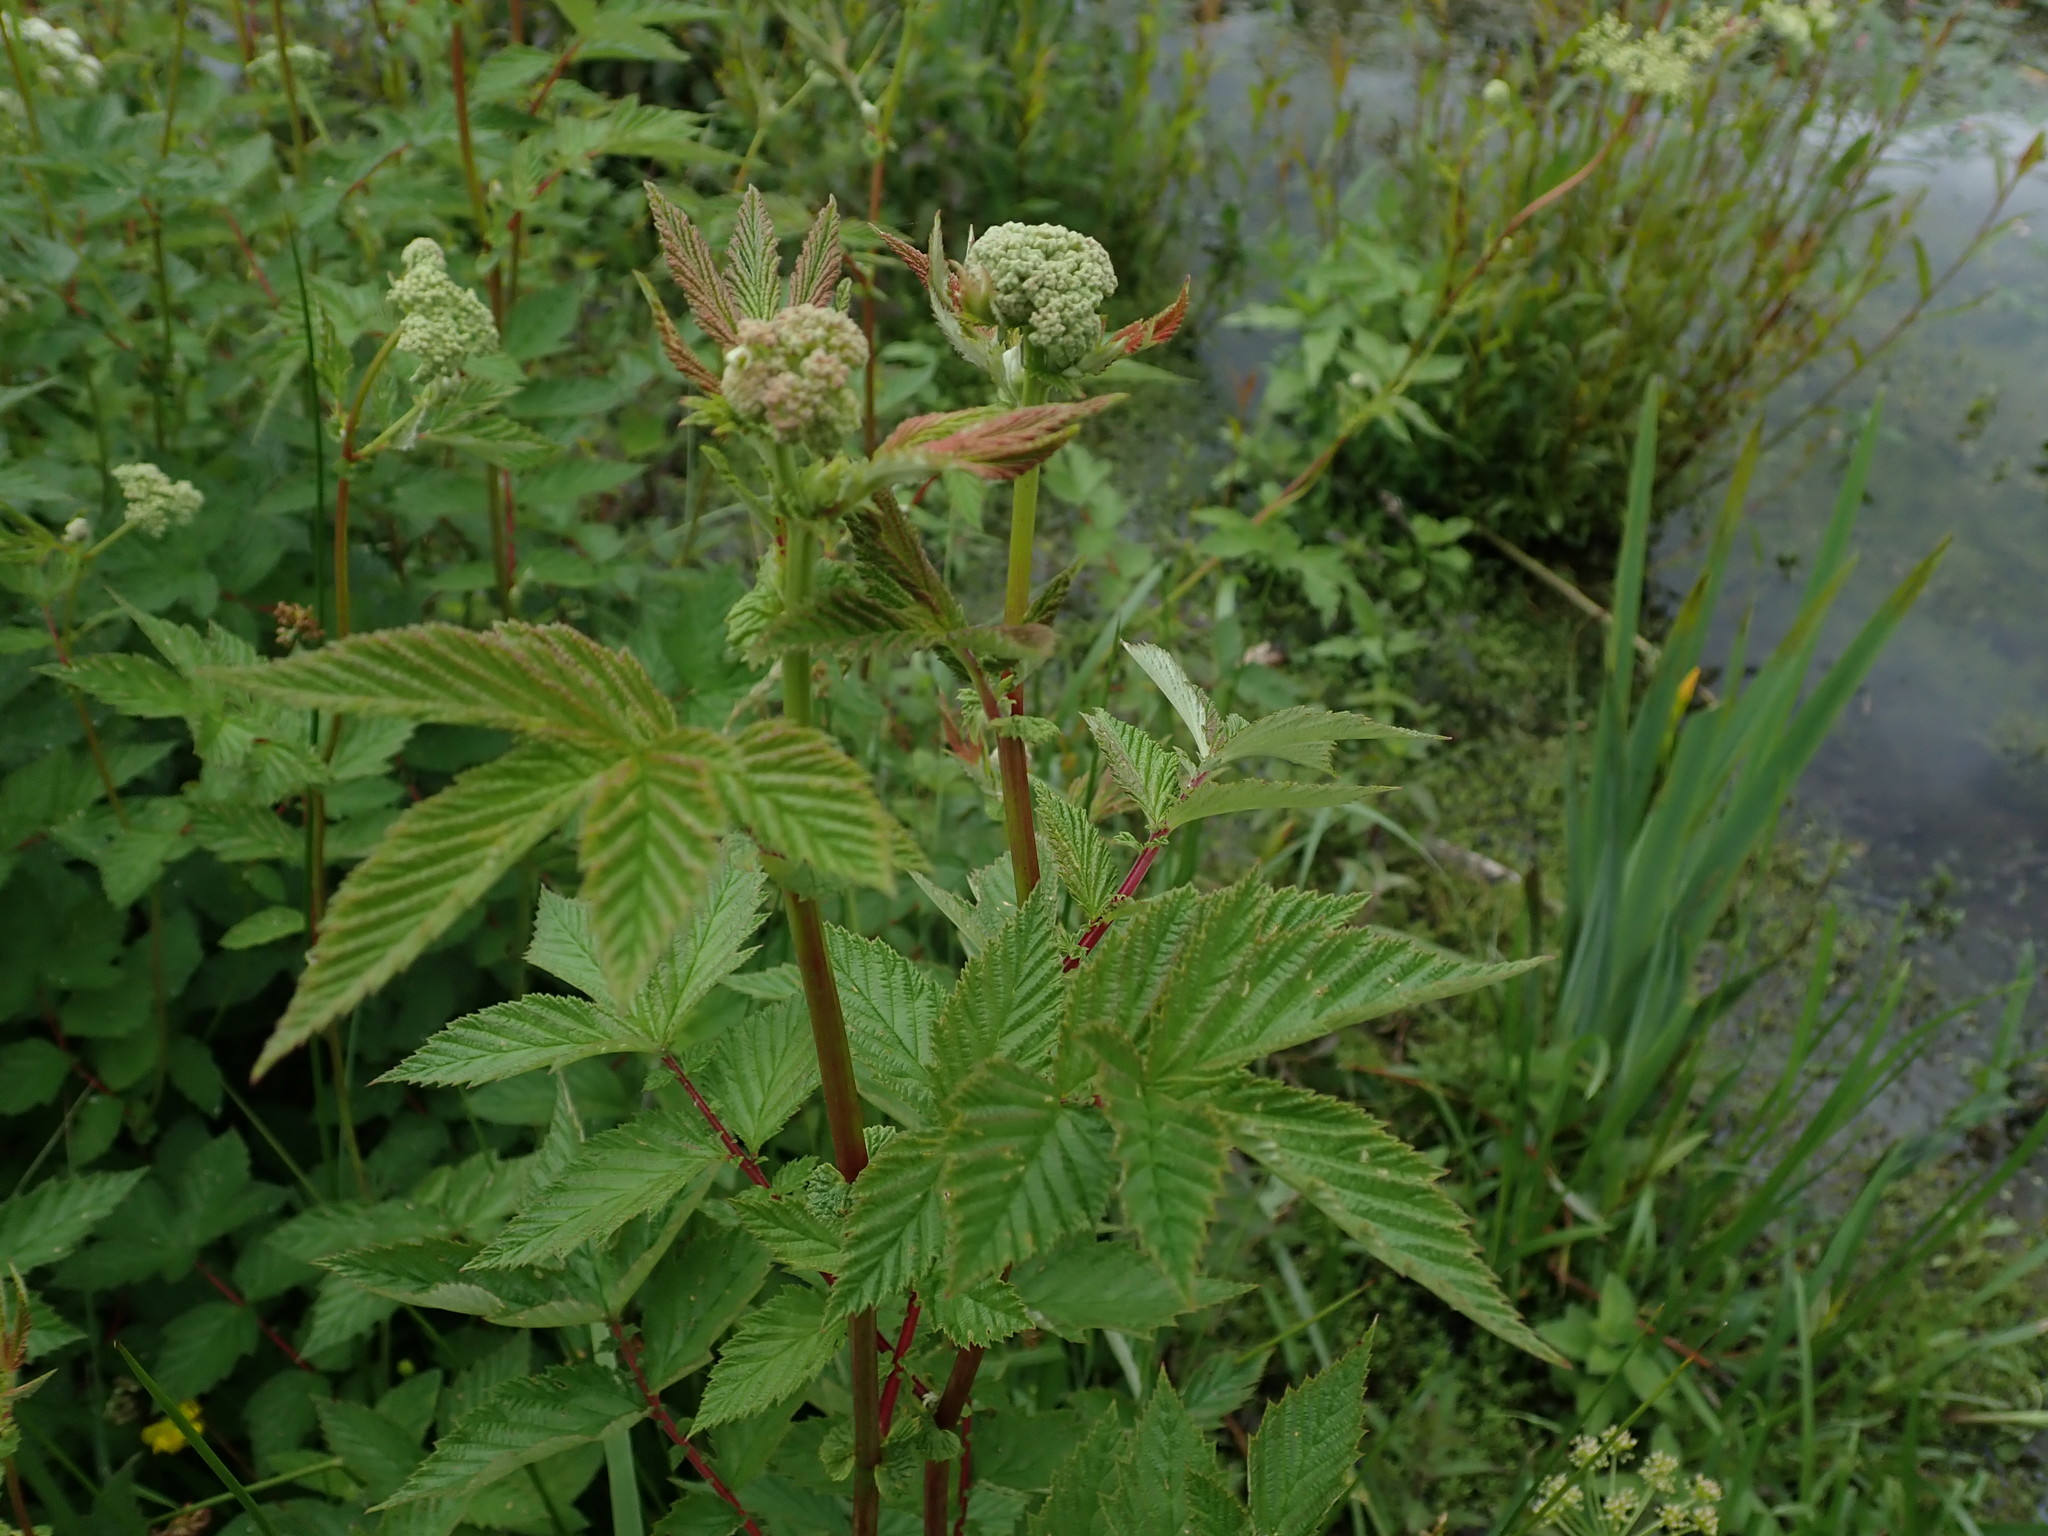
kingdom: Plantae
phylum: Tracheophyta
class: Magnoliopsida
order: Rosales
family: Rosaceae
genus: Filipendula
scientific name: Filipendula ulmaria
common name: Meadowsweet
